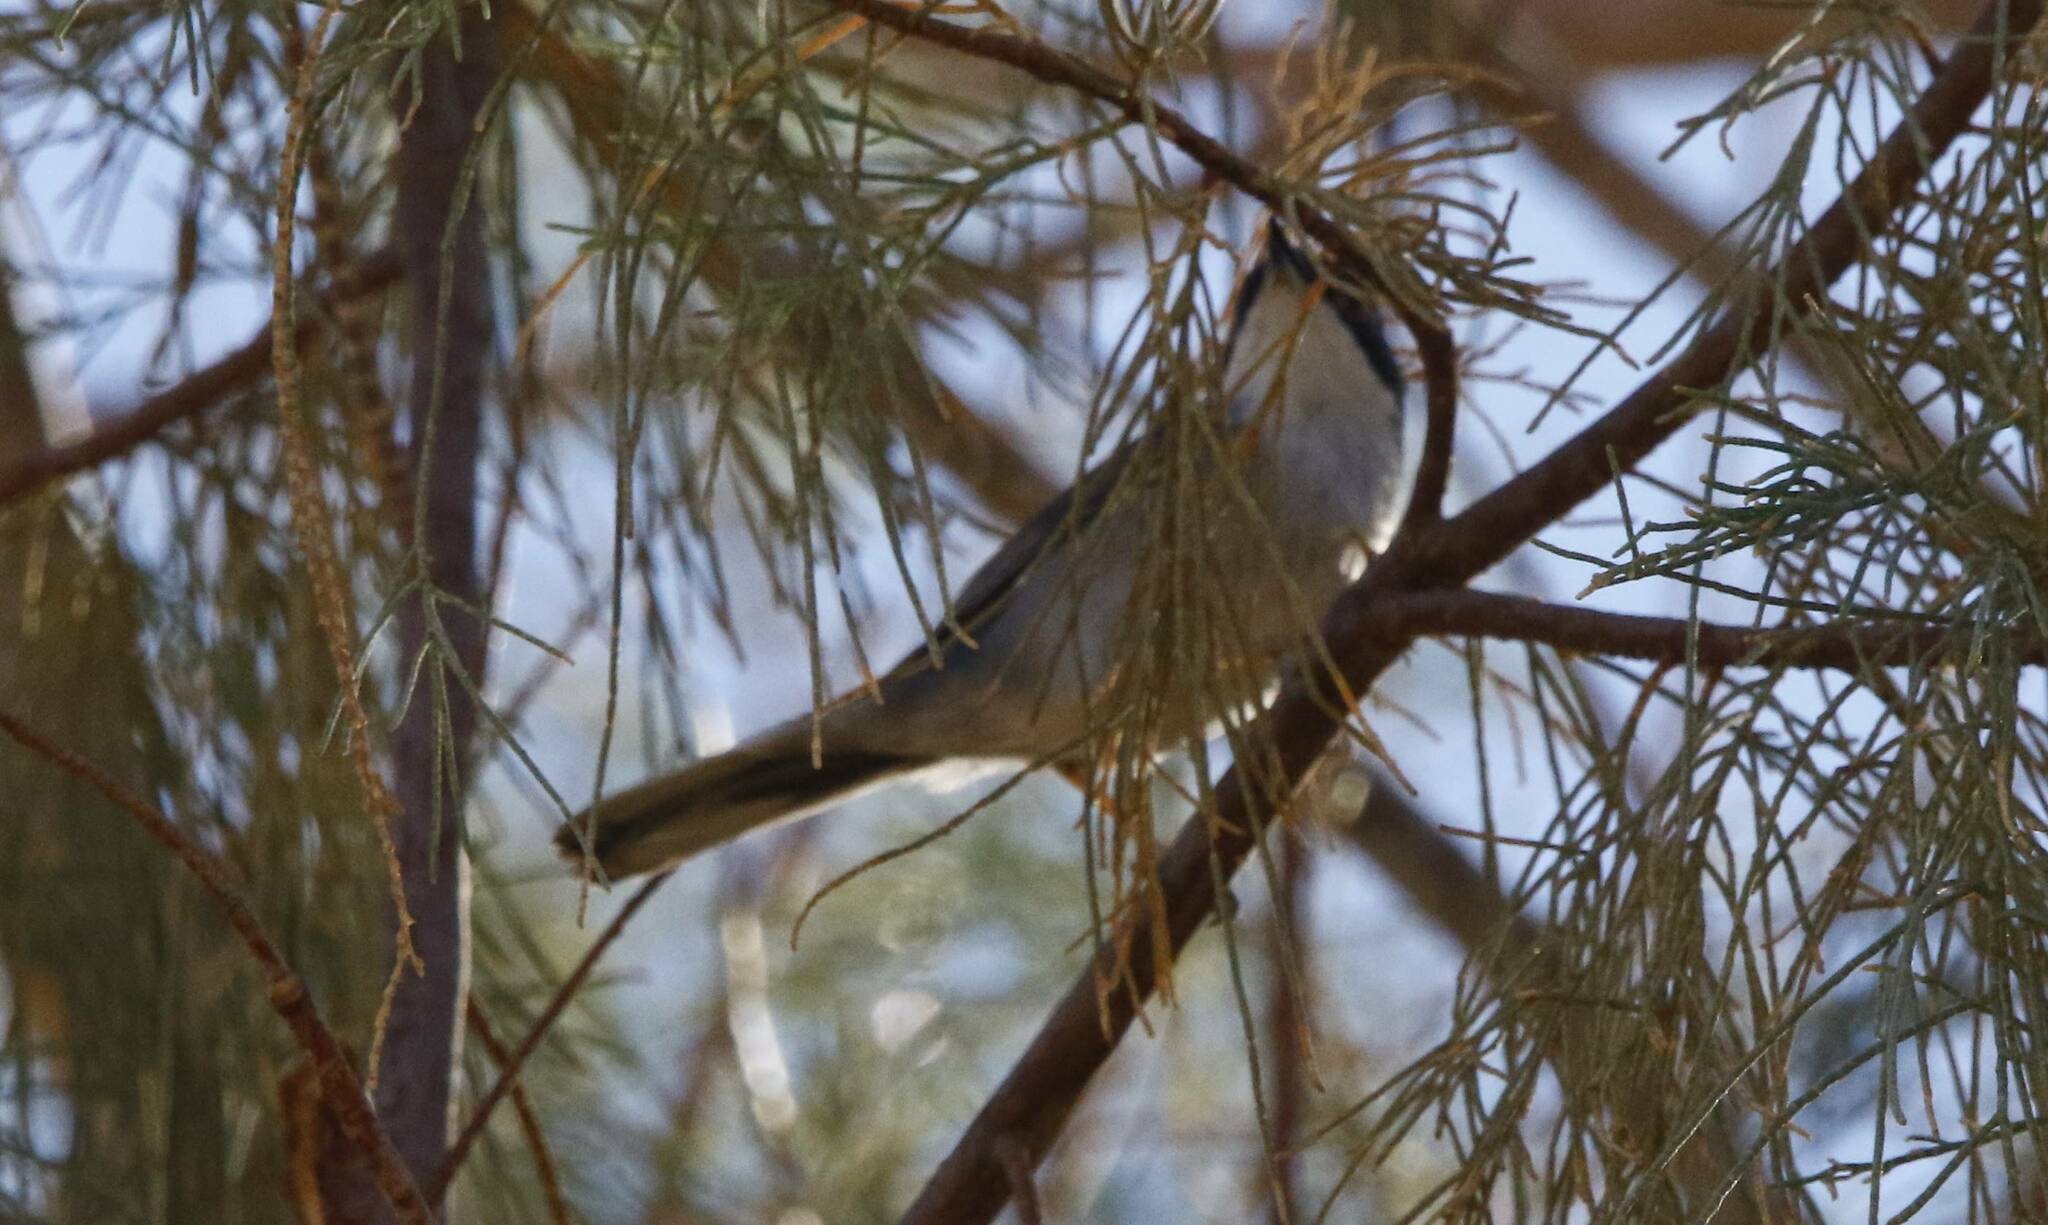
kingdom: Animalia
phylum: Chordata
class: Aves
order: Passeriformes
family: Sylviidae
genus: Curruca
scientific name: Curruca melanocephala
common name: Sardinian warbler
